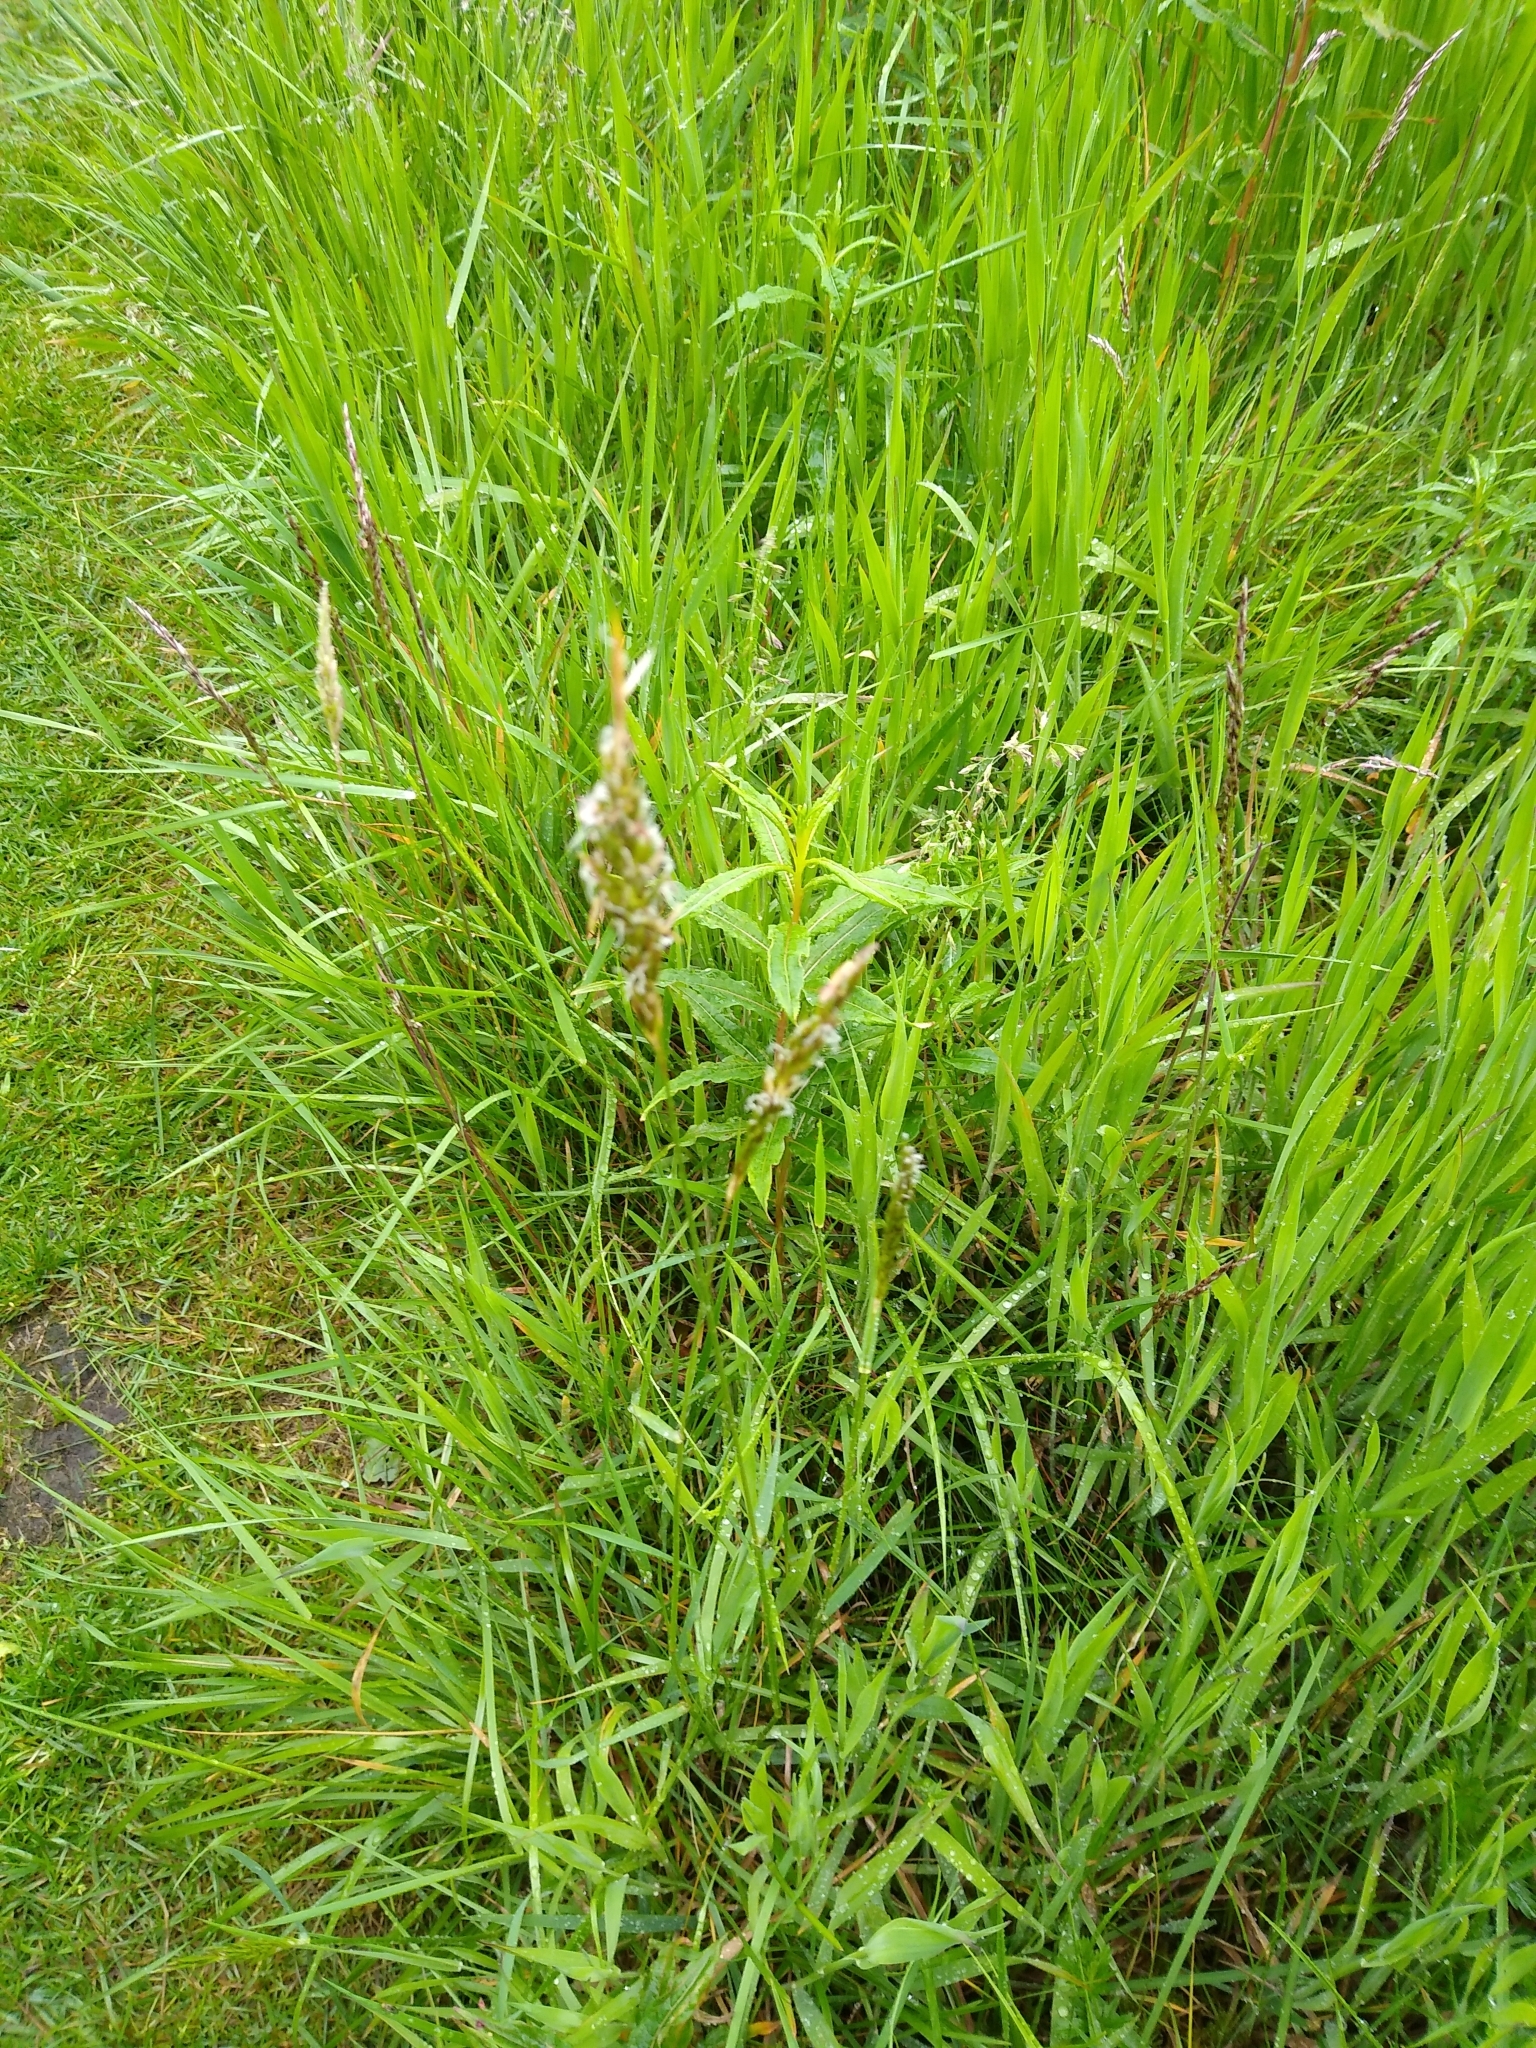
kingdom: Plantae
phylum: Tracheophyta
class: Liliopsida
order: Poales
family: Poaceae
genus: Anthoxanthum
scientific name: Anthoxanthum odoratum
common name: Sweet vernalgrass
